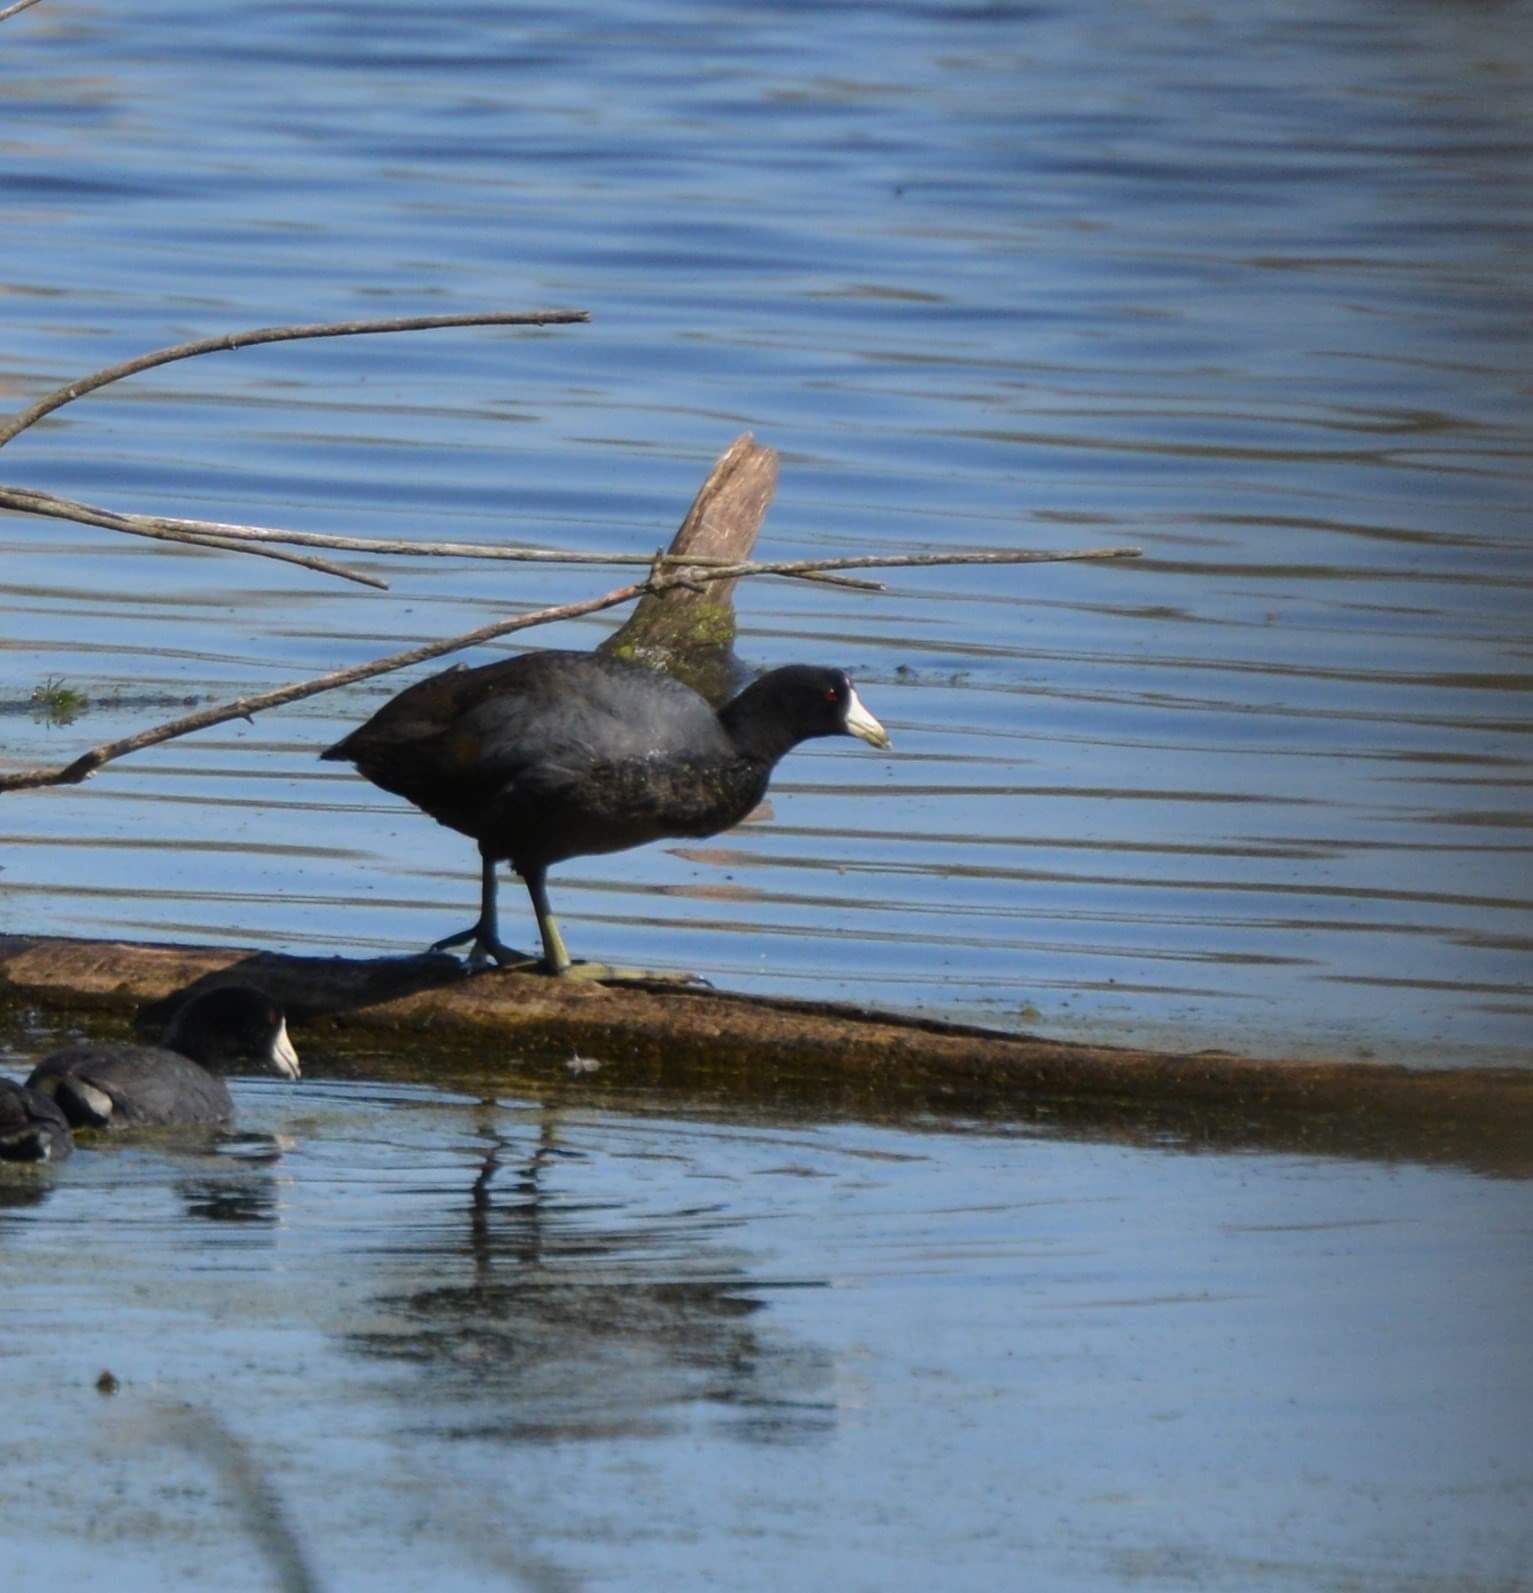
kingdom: Animalia
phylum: Chordata
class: Aves
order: Gruiformes
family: Rallidae
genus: Fulica
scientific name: Fulica americana
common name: American coot
